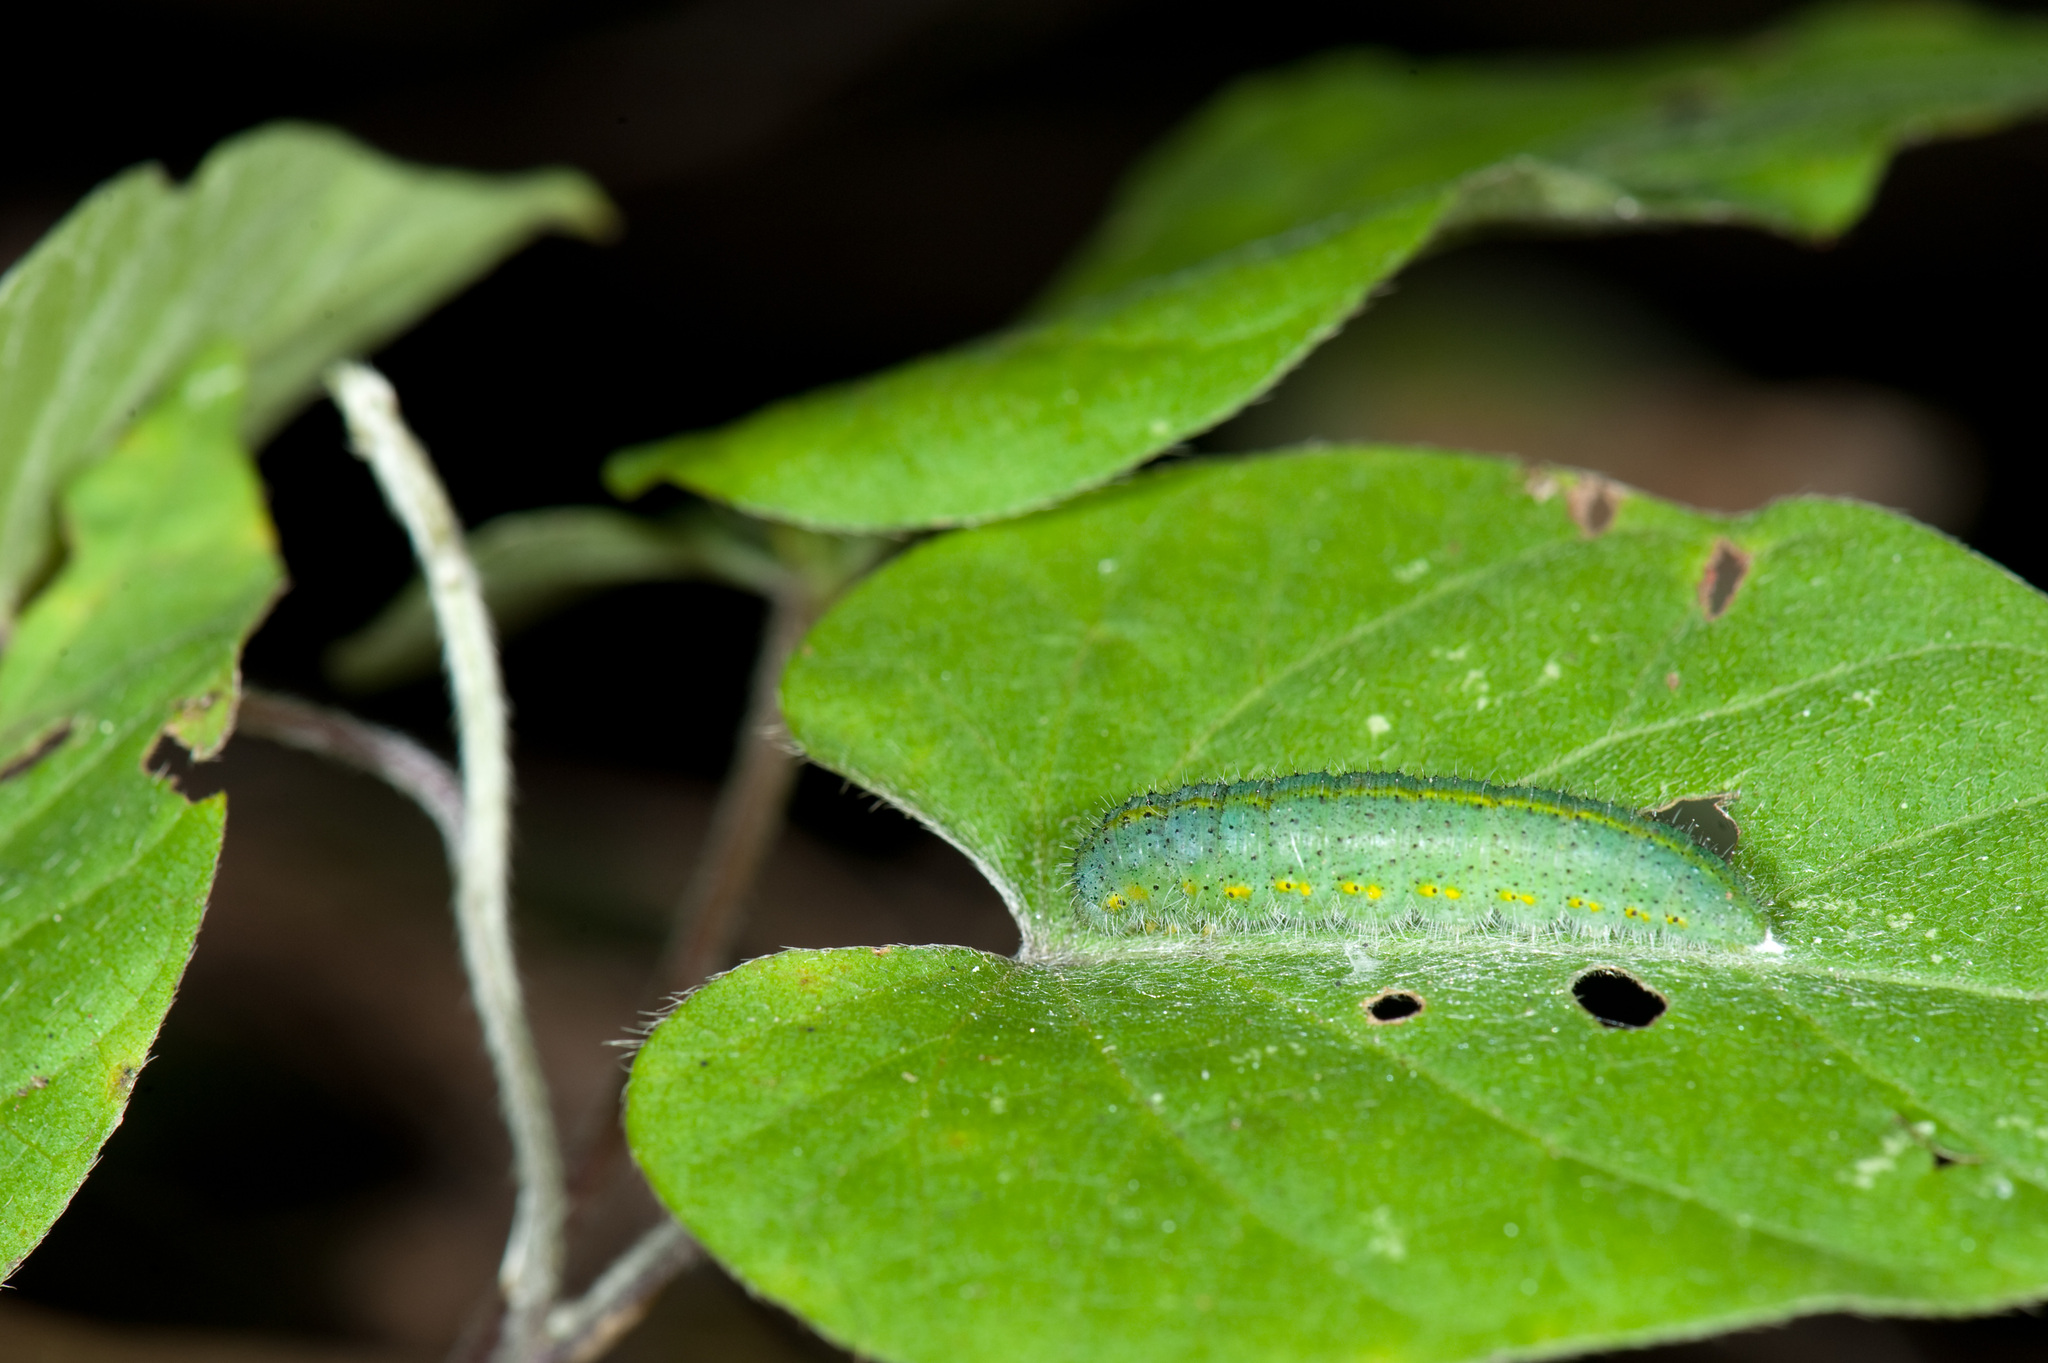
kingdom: Animalia
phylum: Arthropoda
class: Insecta
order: Lepidoptera
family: Pieridae
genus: Pieris
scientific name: Pieris canidia
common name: Indian cabbage white
